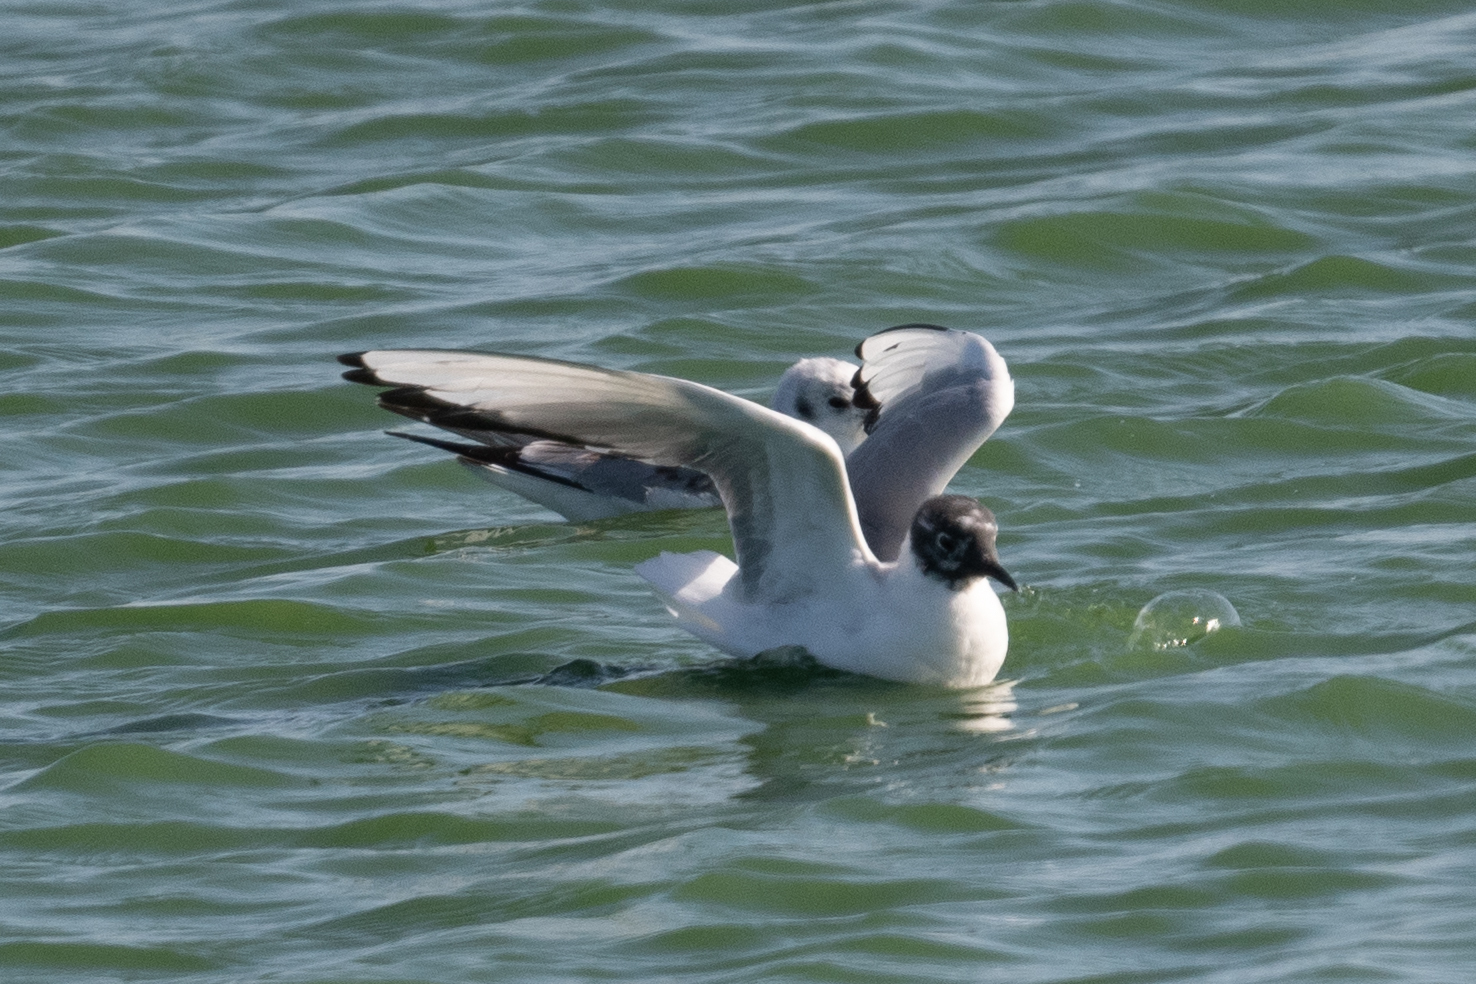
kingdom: Animalia
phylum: Chordata
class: Aves
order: Charadriiformes
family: Laridae
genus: Chroicocephalus
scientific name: Chroicocephalus philadelphia
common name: Bonaparte's gull
